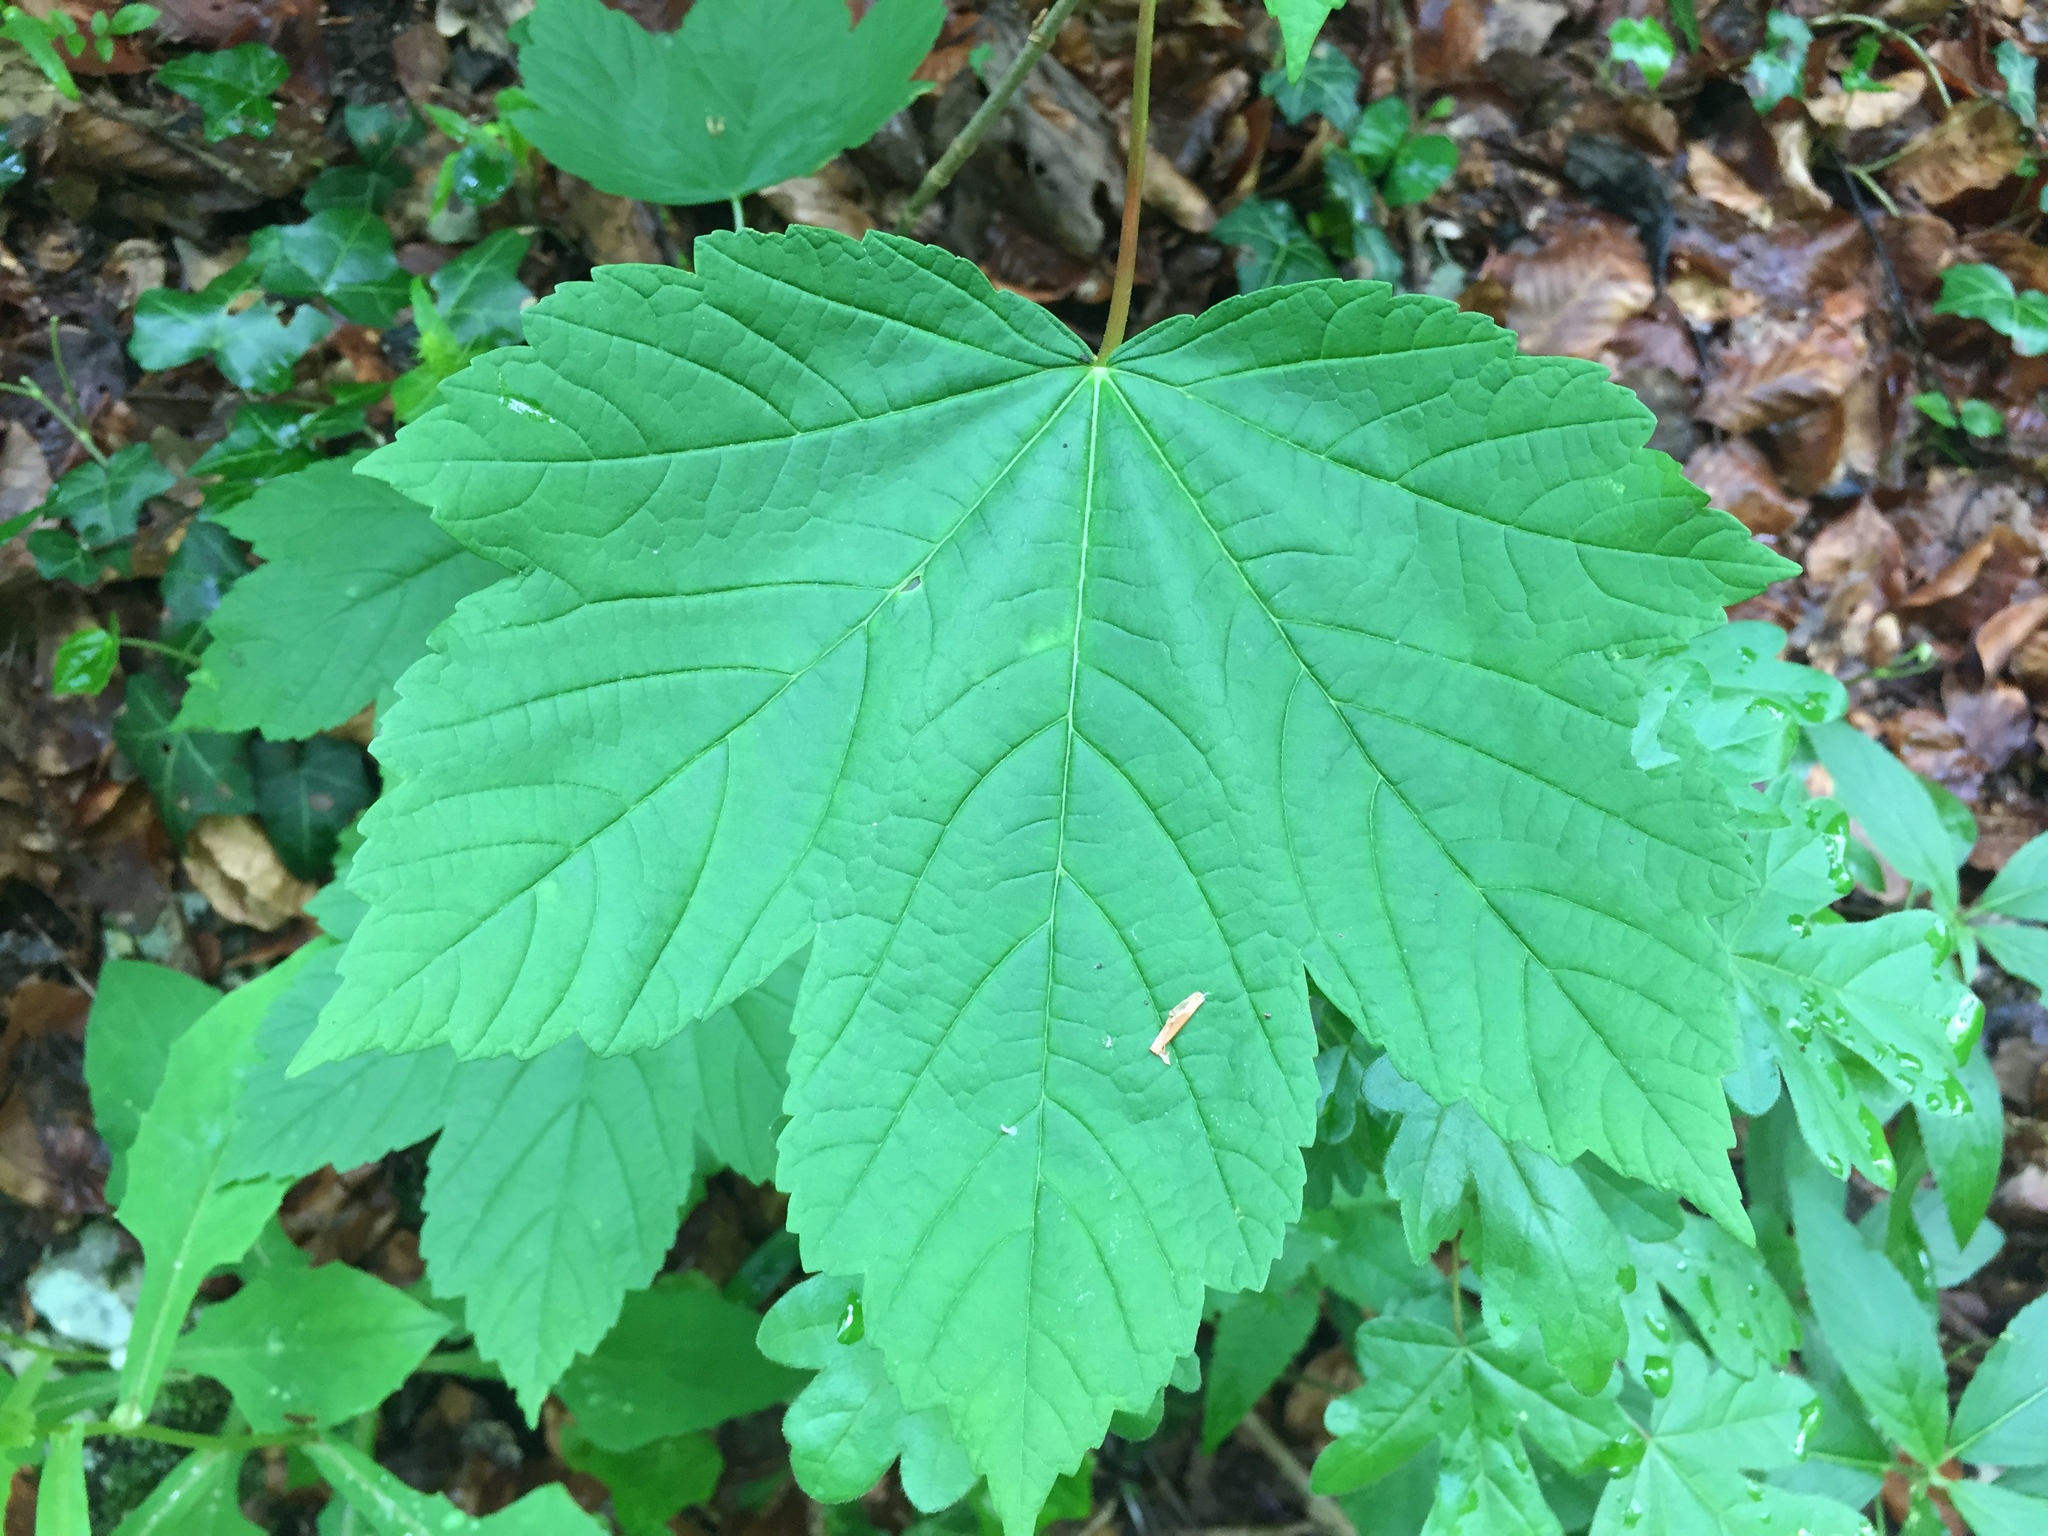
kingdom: Plantae
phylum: Tracheophyta
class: Magnoliopsida
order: Sapindales
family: Sapindaceae
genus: Acer
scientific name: Acer pseudoplatanus
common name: Sycamore
